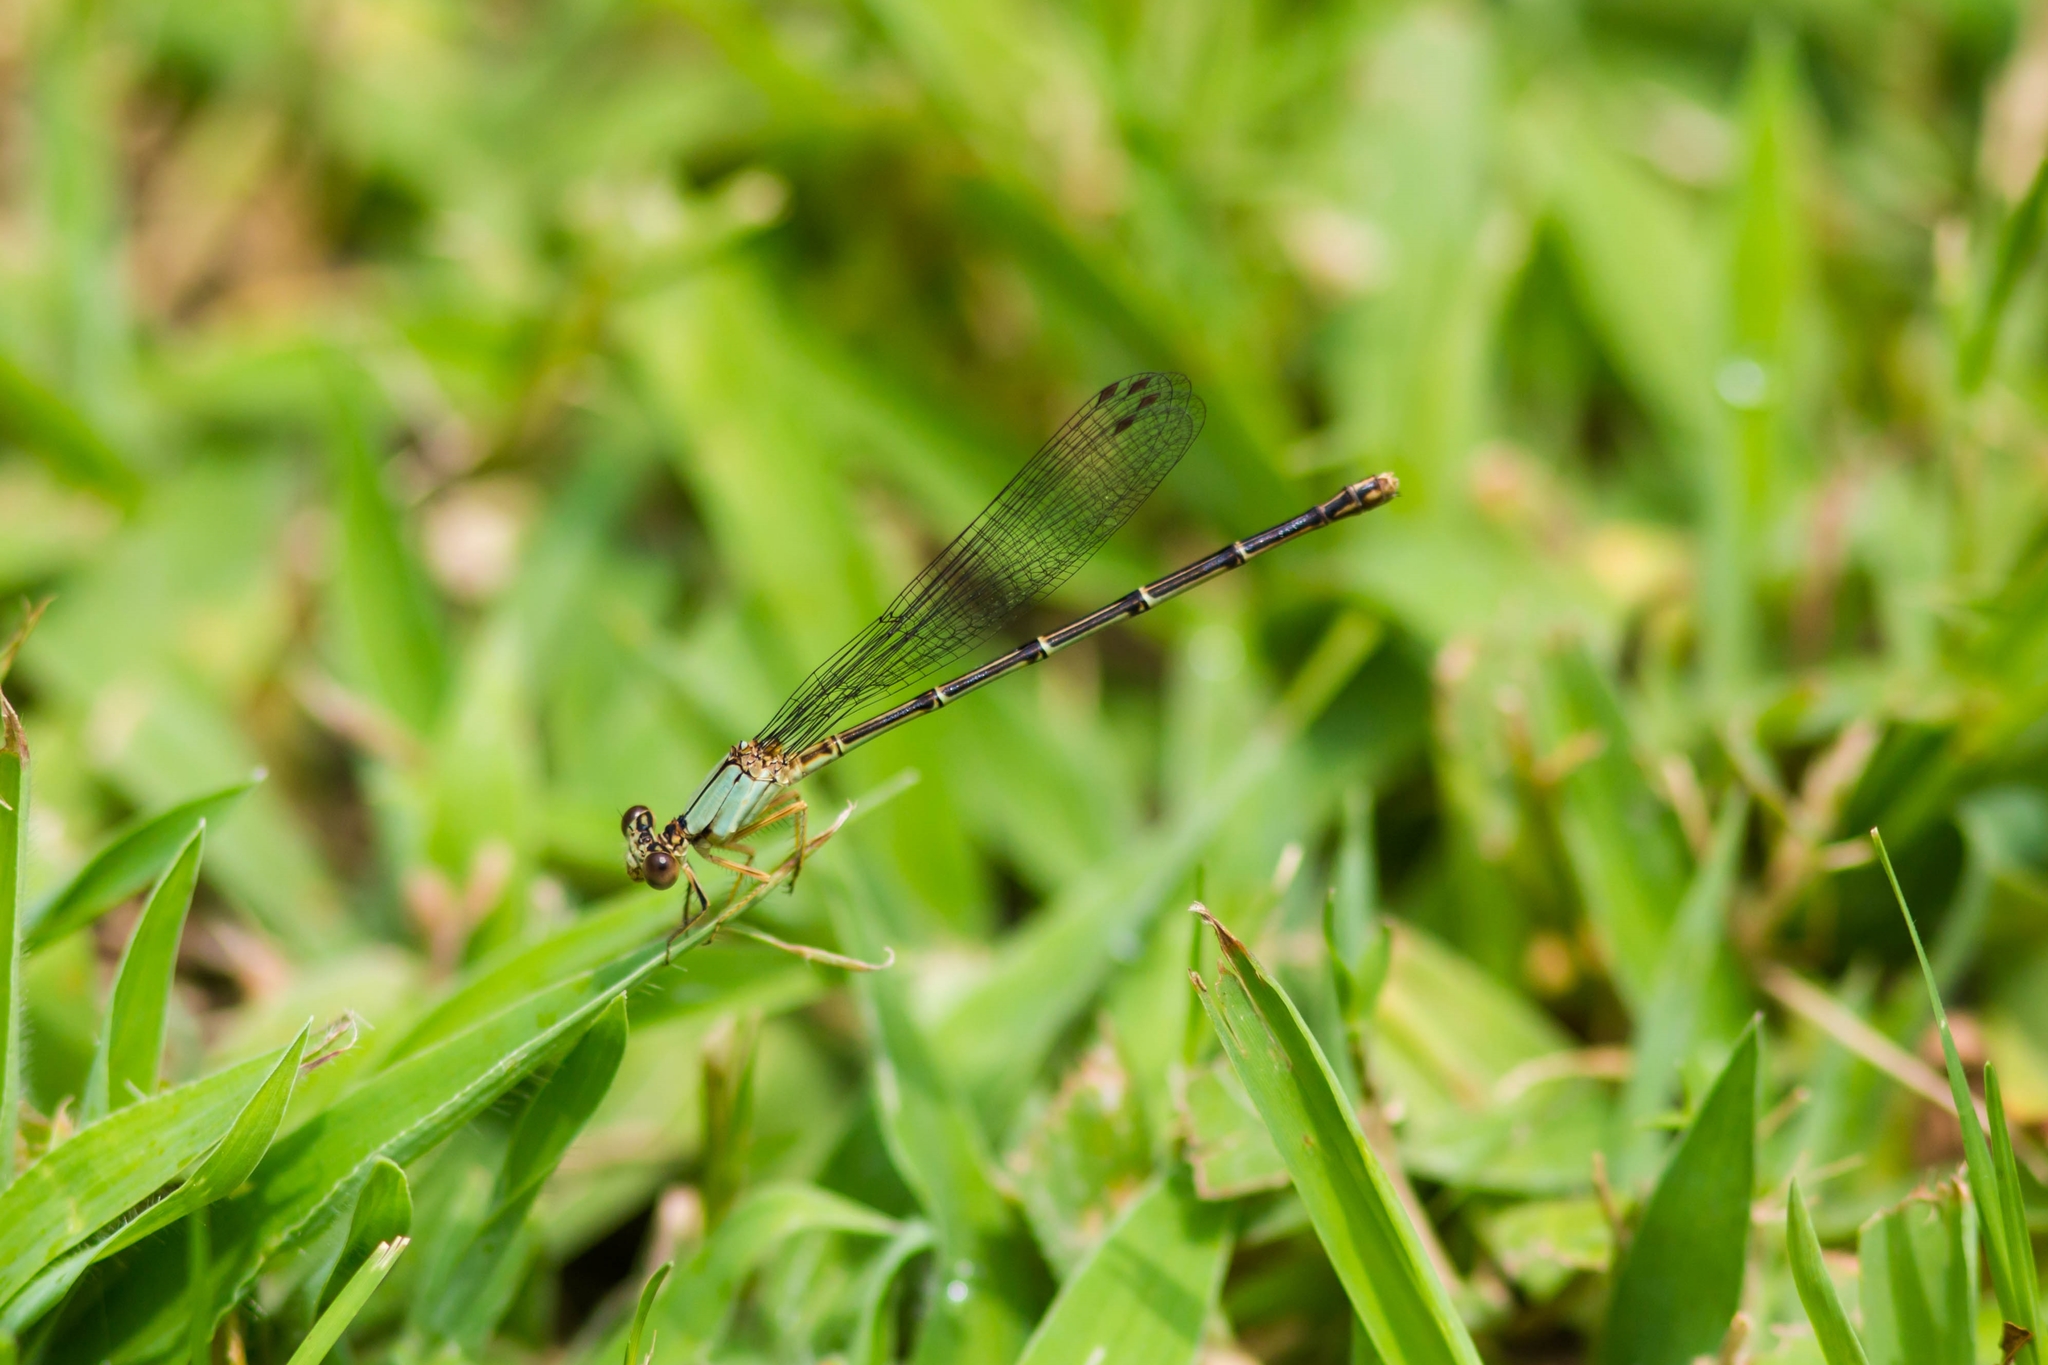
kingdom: Animalia
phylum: Arthropoda
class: Insecta
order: Odonata
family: Coenagrionidae
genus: Argia
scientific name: Argia apicalis
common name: Blue-fronted dancer
